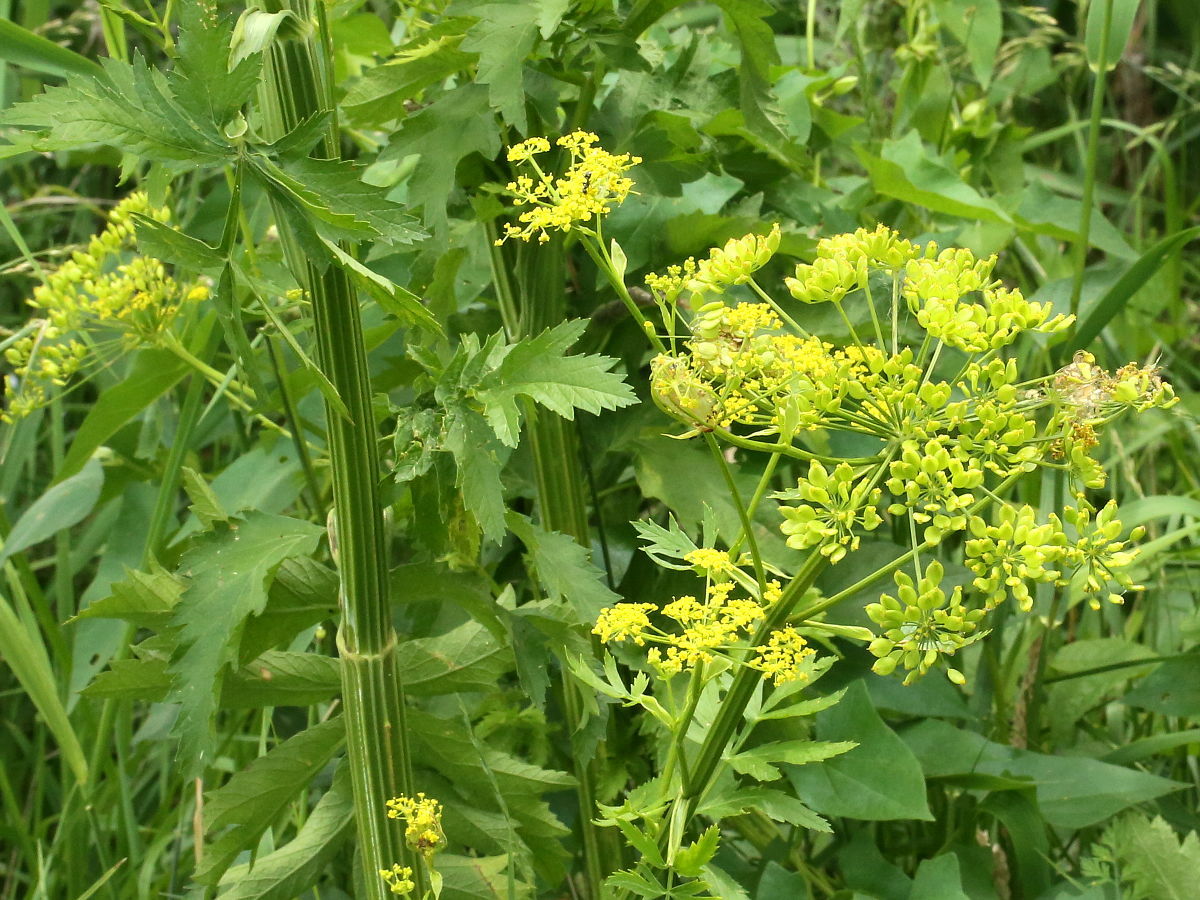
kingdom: Plantae
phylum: Tracheophyta
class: Magnoliopsida
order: Apiales
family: Apiaceae
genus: Pastinaca
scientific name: Pastinaca sativa
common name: Wild parsnip
